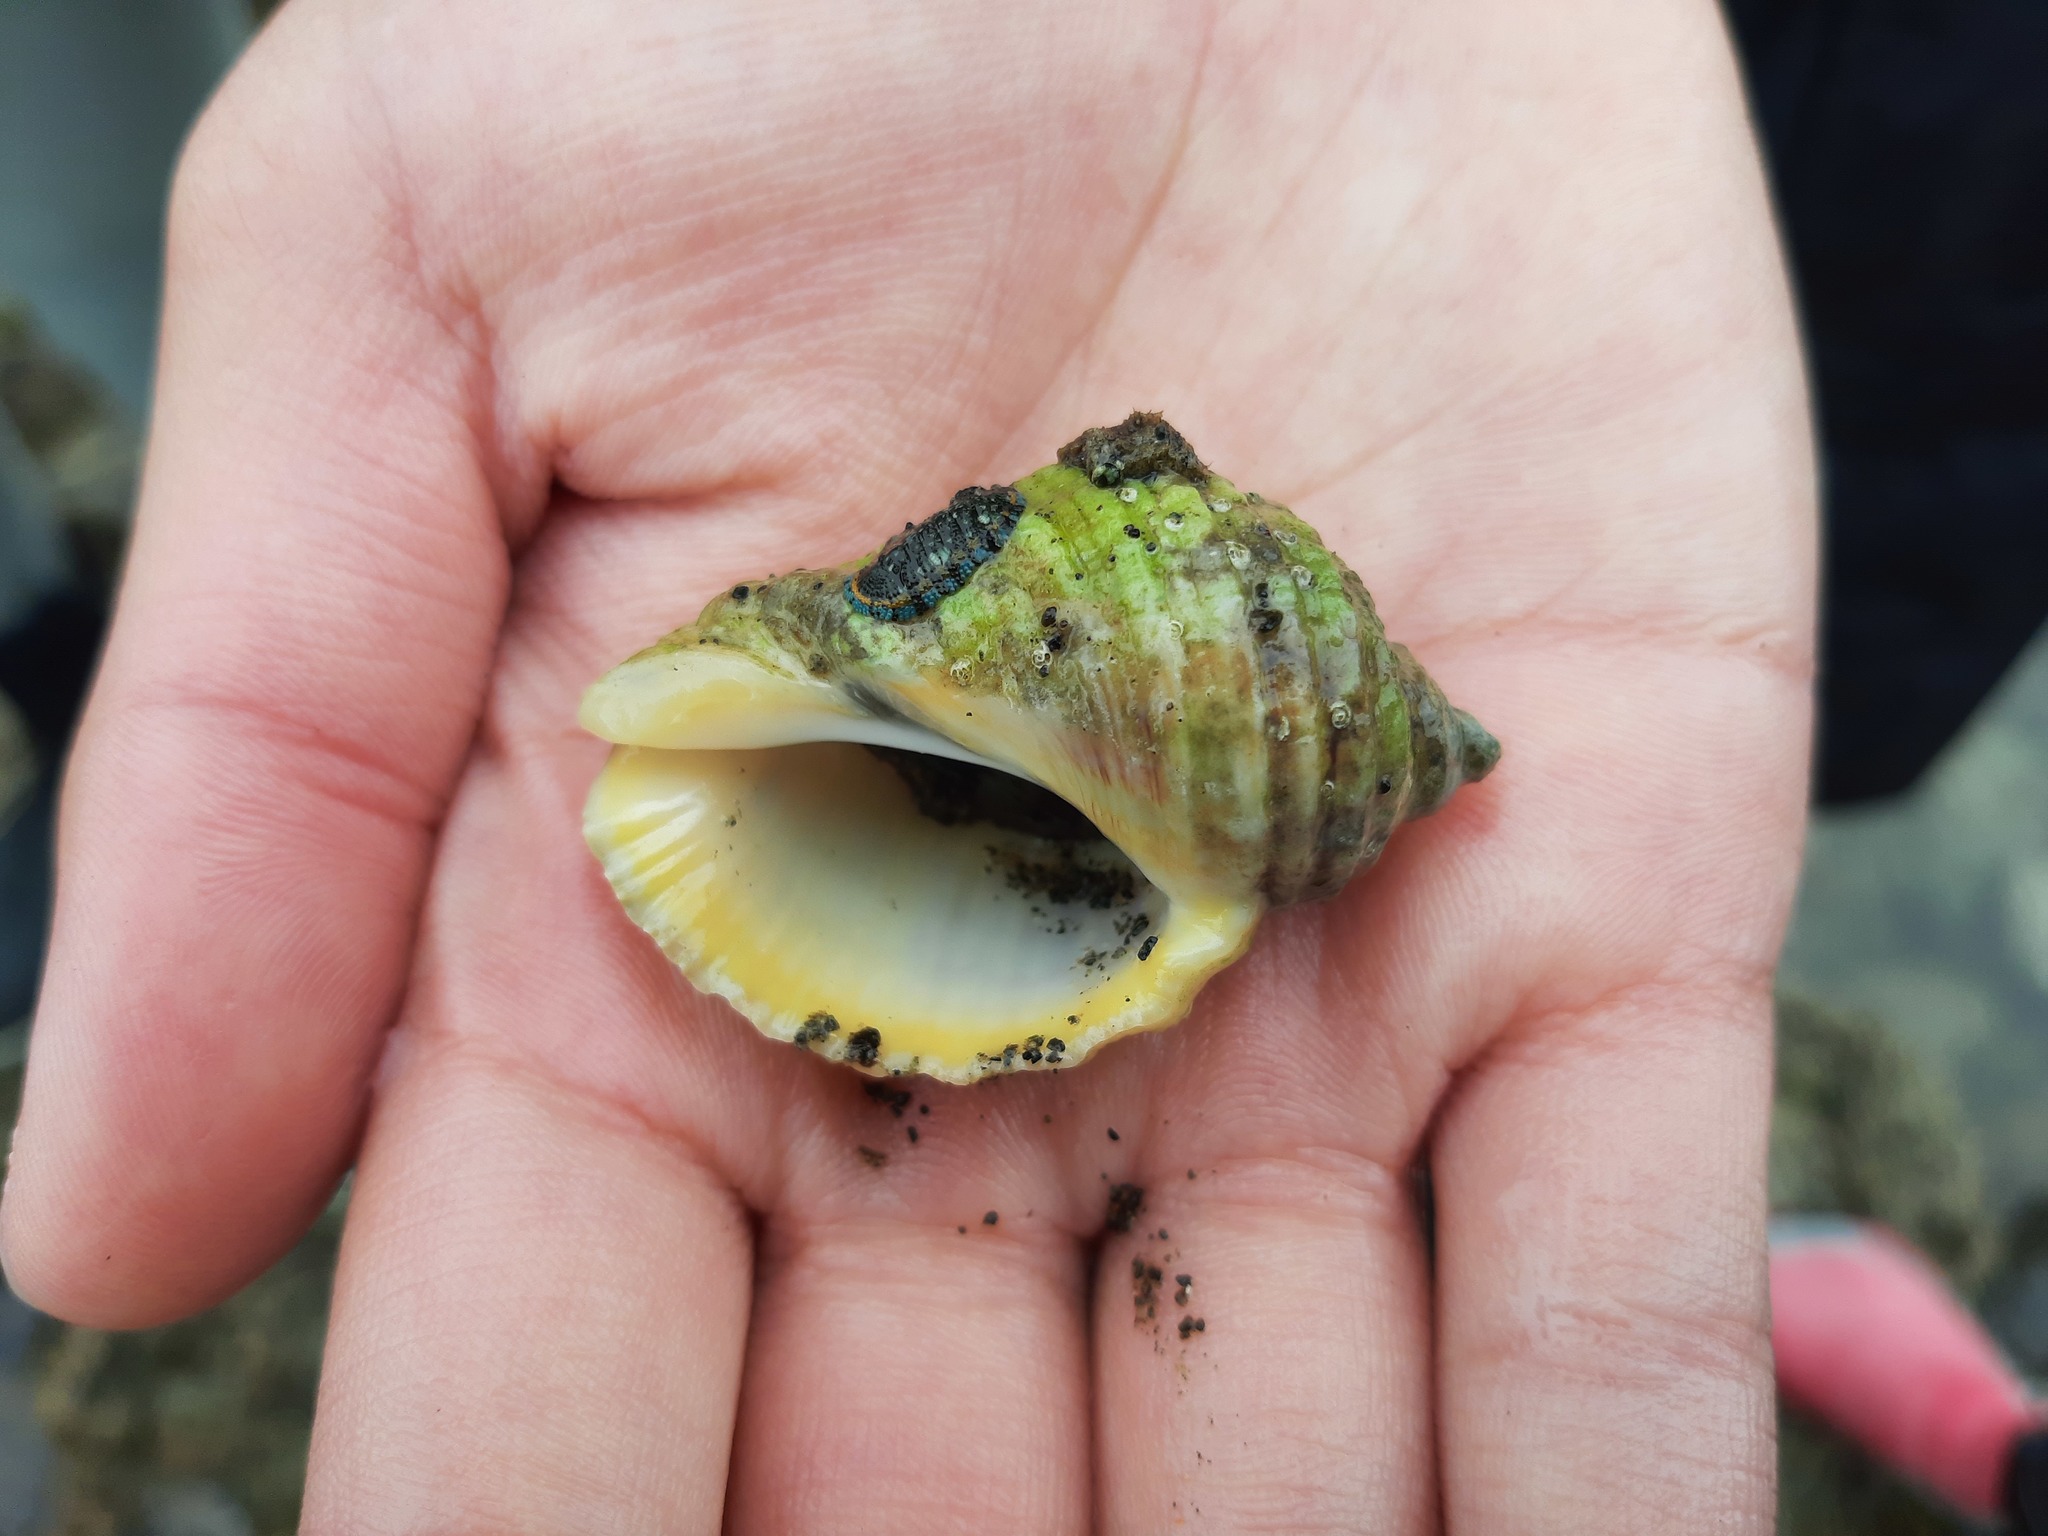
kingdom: Animalia
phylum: Mollusca
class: Gastropoda
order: Neogastropoda
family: Muricidae
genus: Dicathais
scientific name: Dicathais orbita
